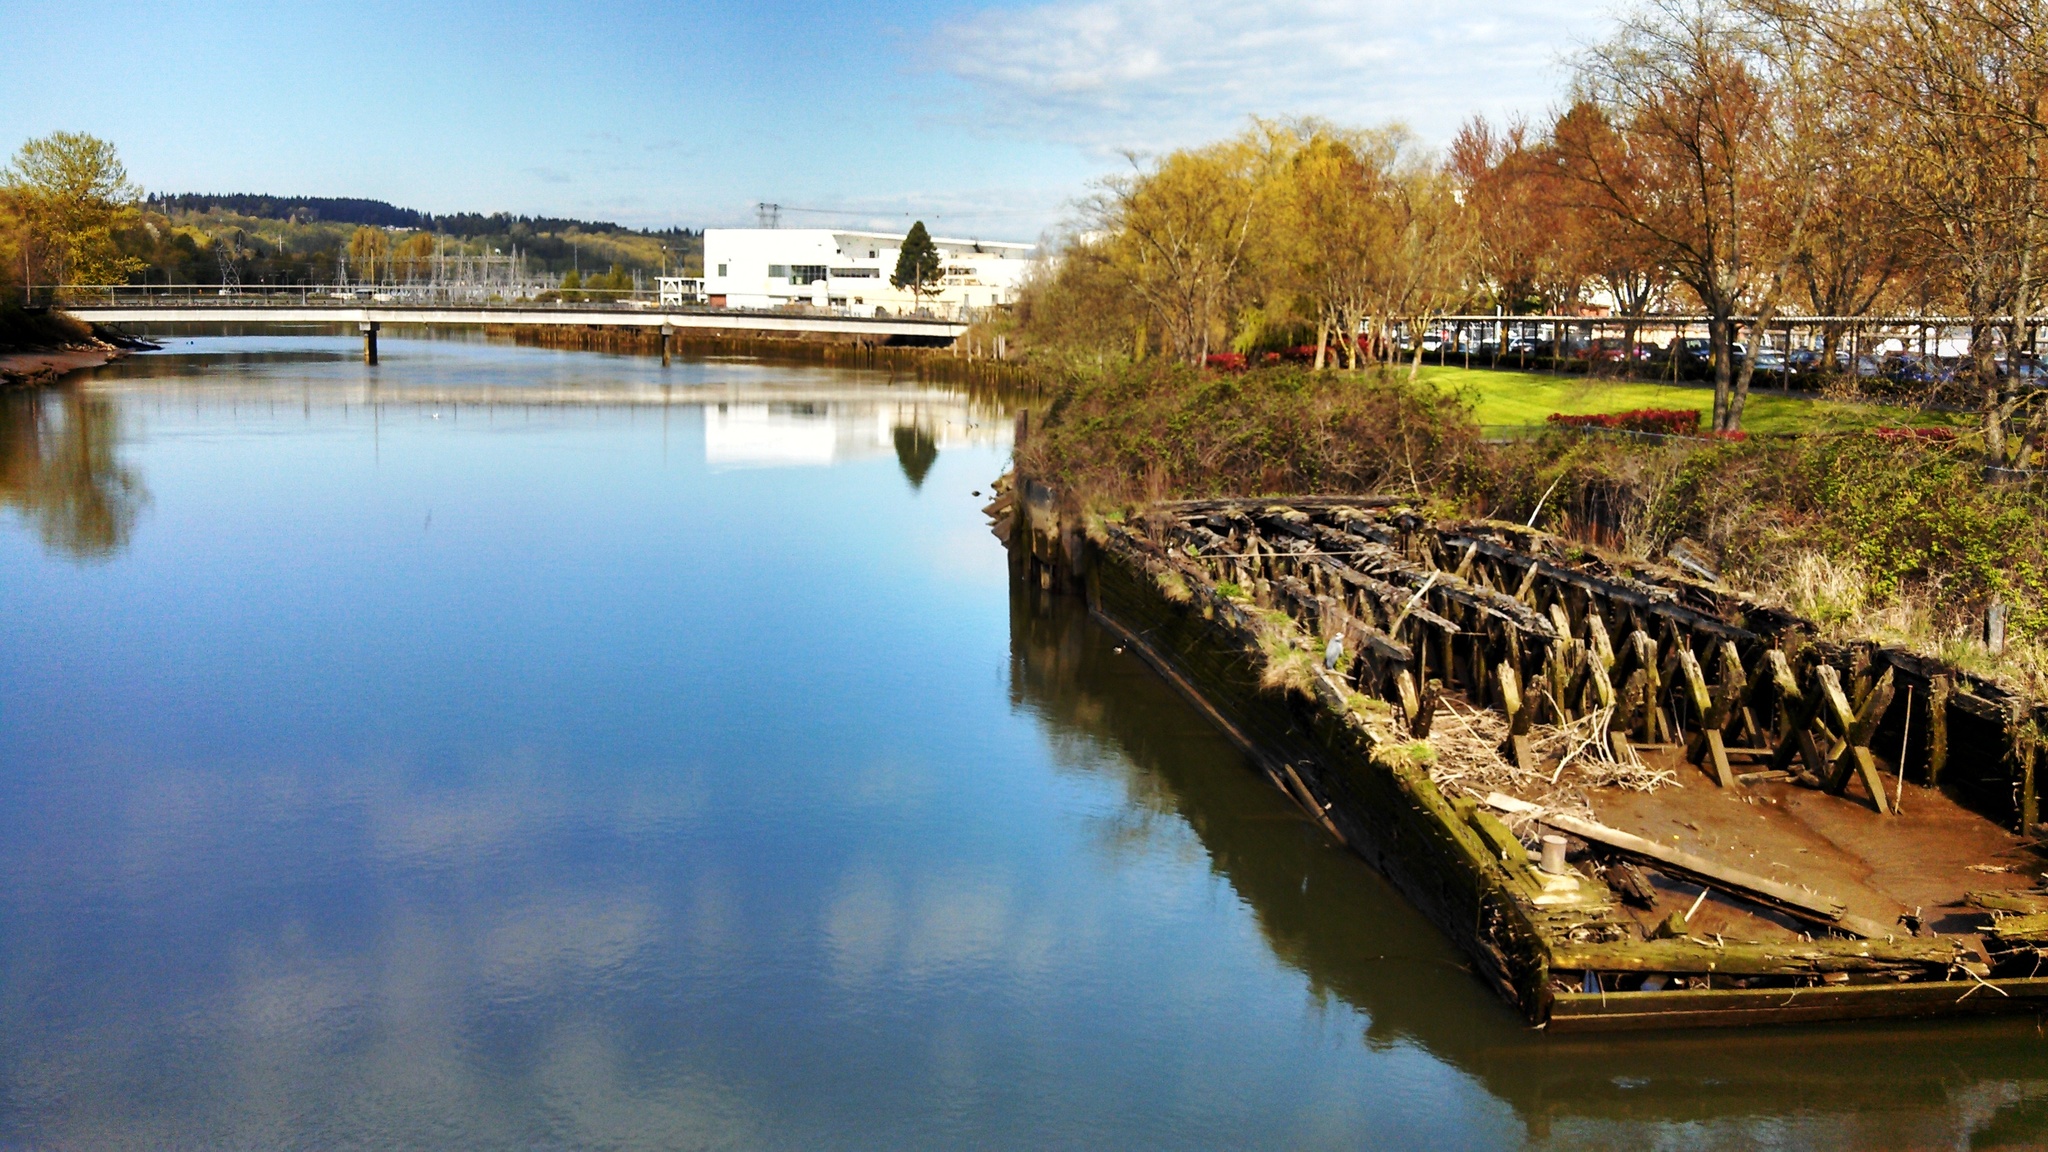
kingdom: Animalia
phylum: Chordata
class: Aves
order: Pelecaniformes
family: Ardeidae
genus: Ardea
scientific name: Ardea herodias
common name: Great blue heron
